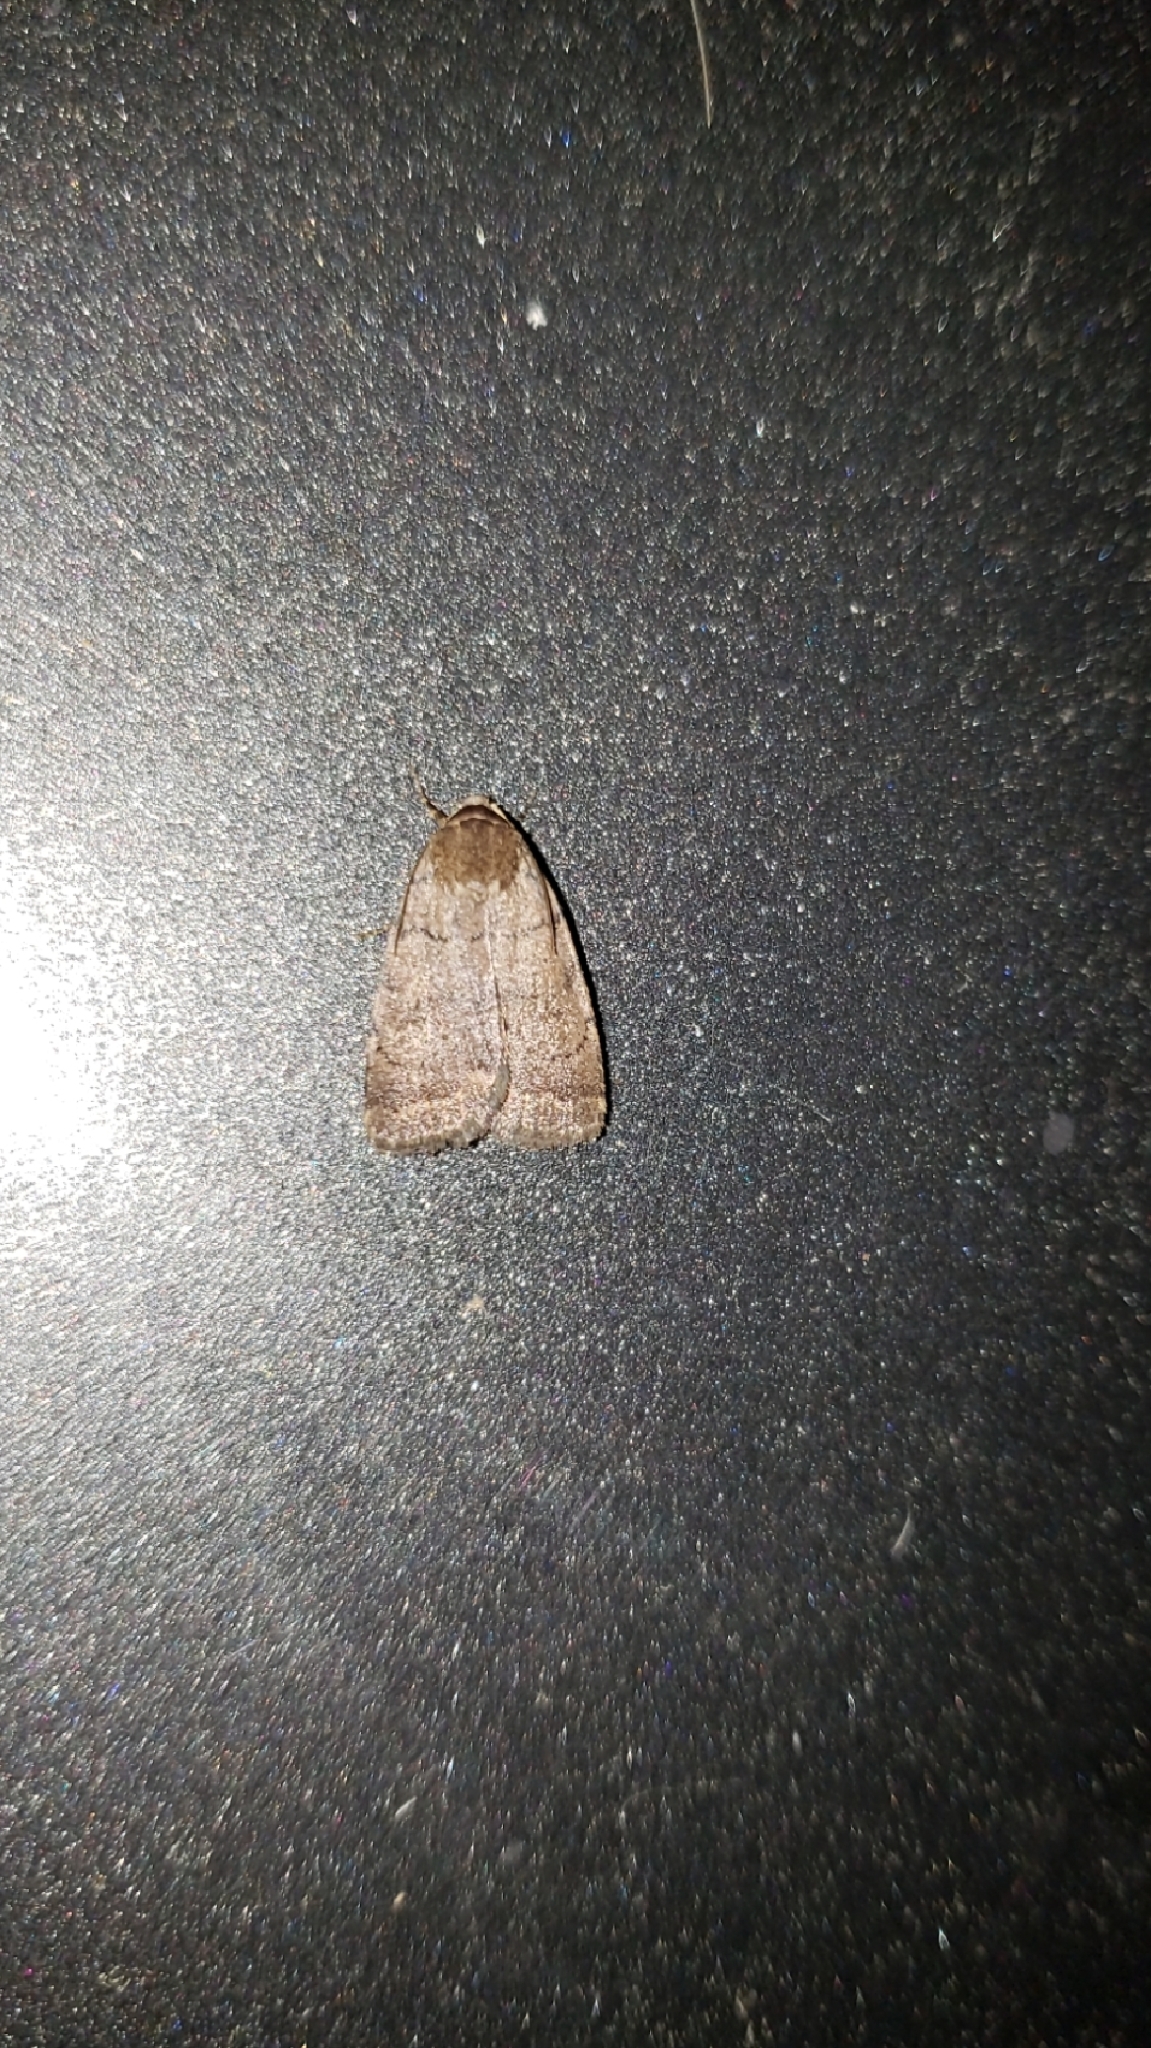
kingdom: Animalia
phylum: Arthropoda
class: Insecta
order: Lepidoptera
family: Noctuidae
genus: Athetis
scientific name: Athetis tarda
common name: Slowpoke moth
